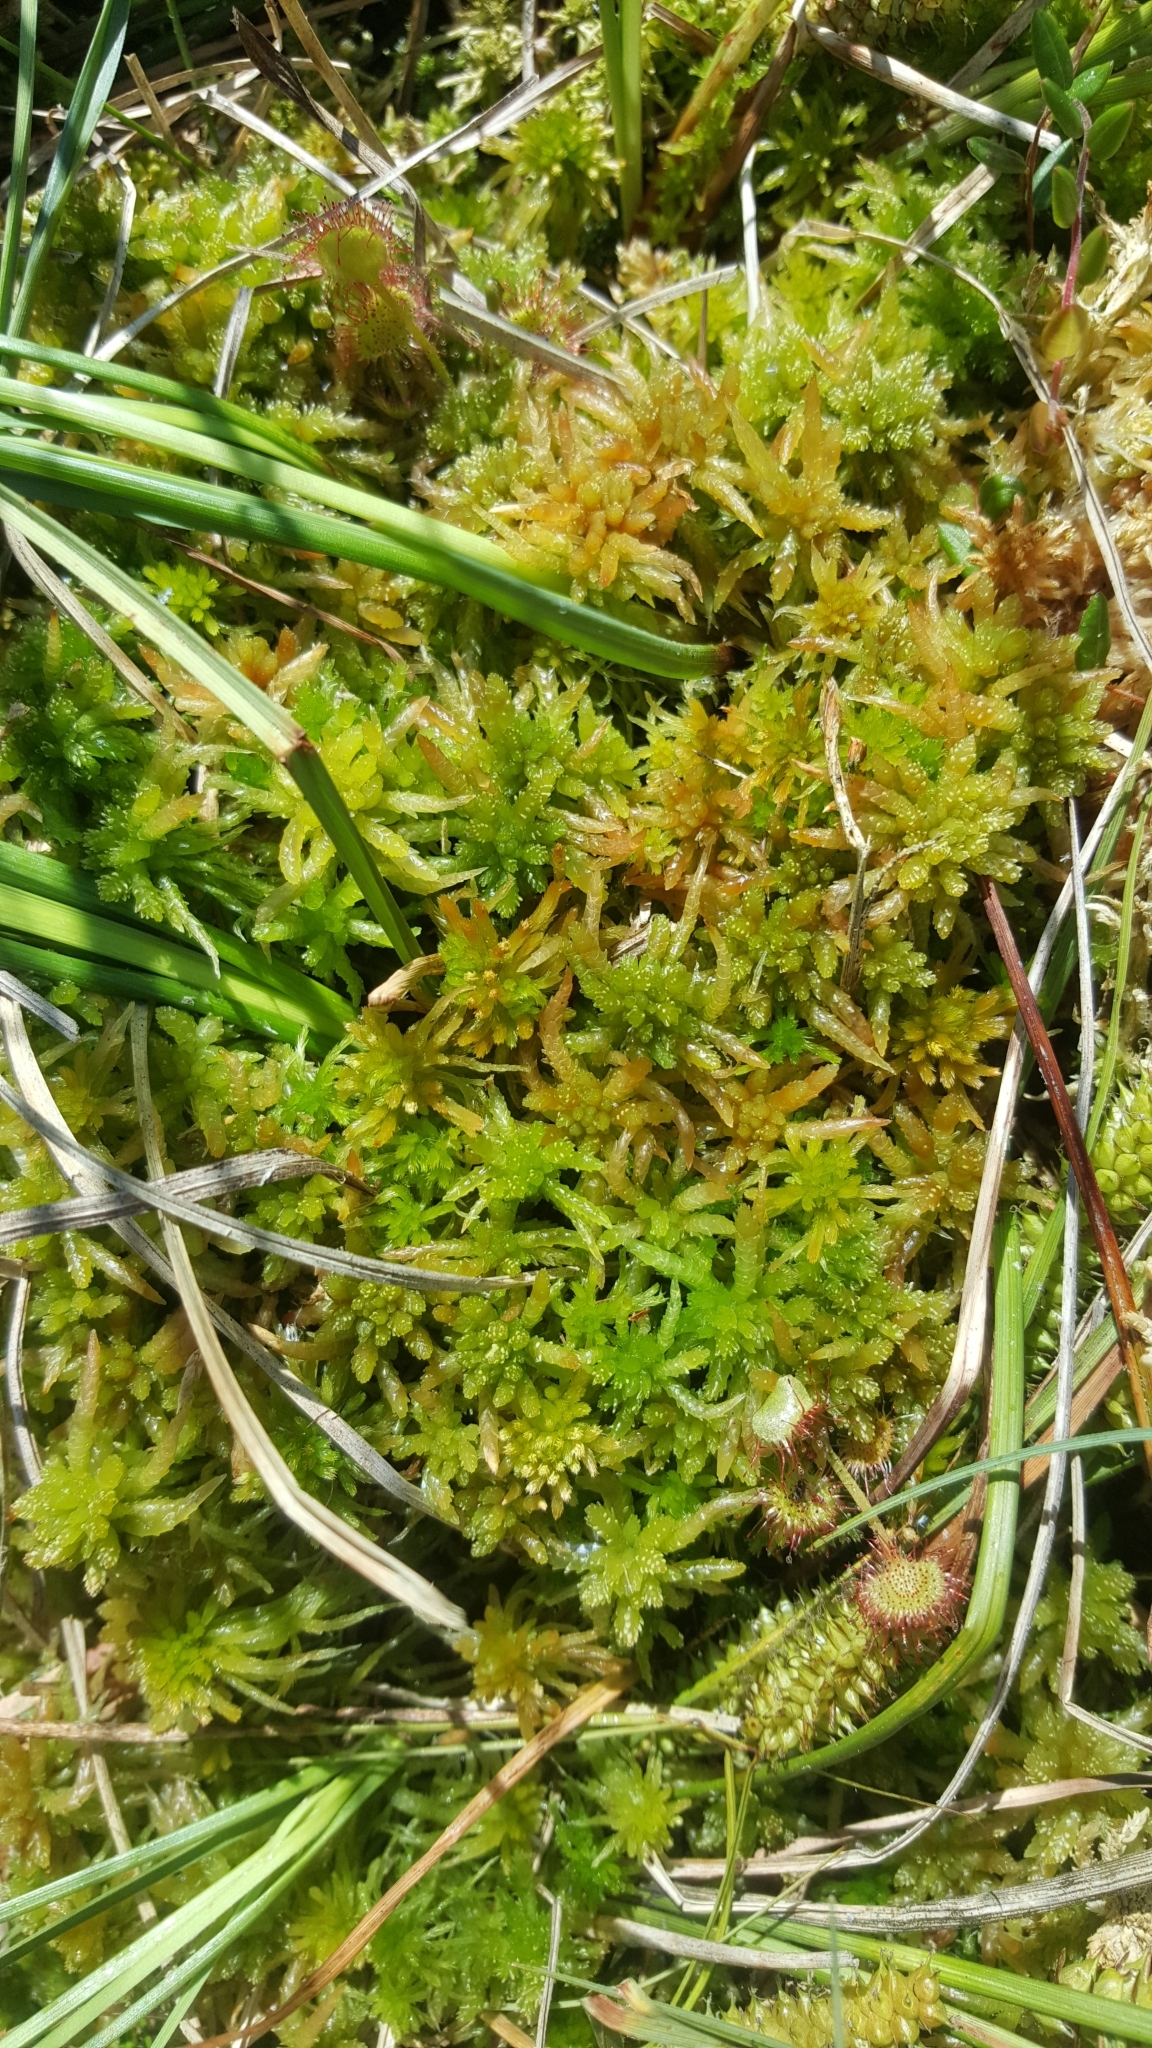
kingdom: Plantae
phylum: Tracheophyta
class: Magnoliopsida
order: Caryophyllales
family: Droseraceae
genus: Drosera
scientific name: Drosera rotundifolia
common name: Round-leaved sundew
